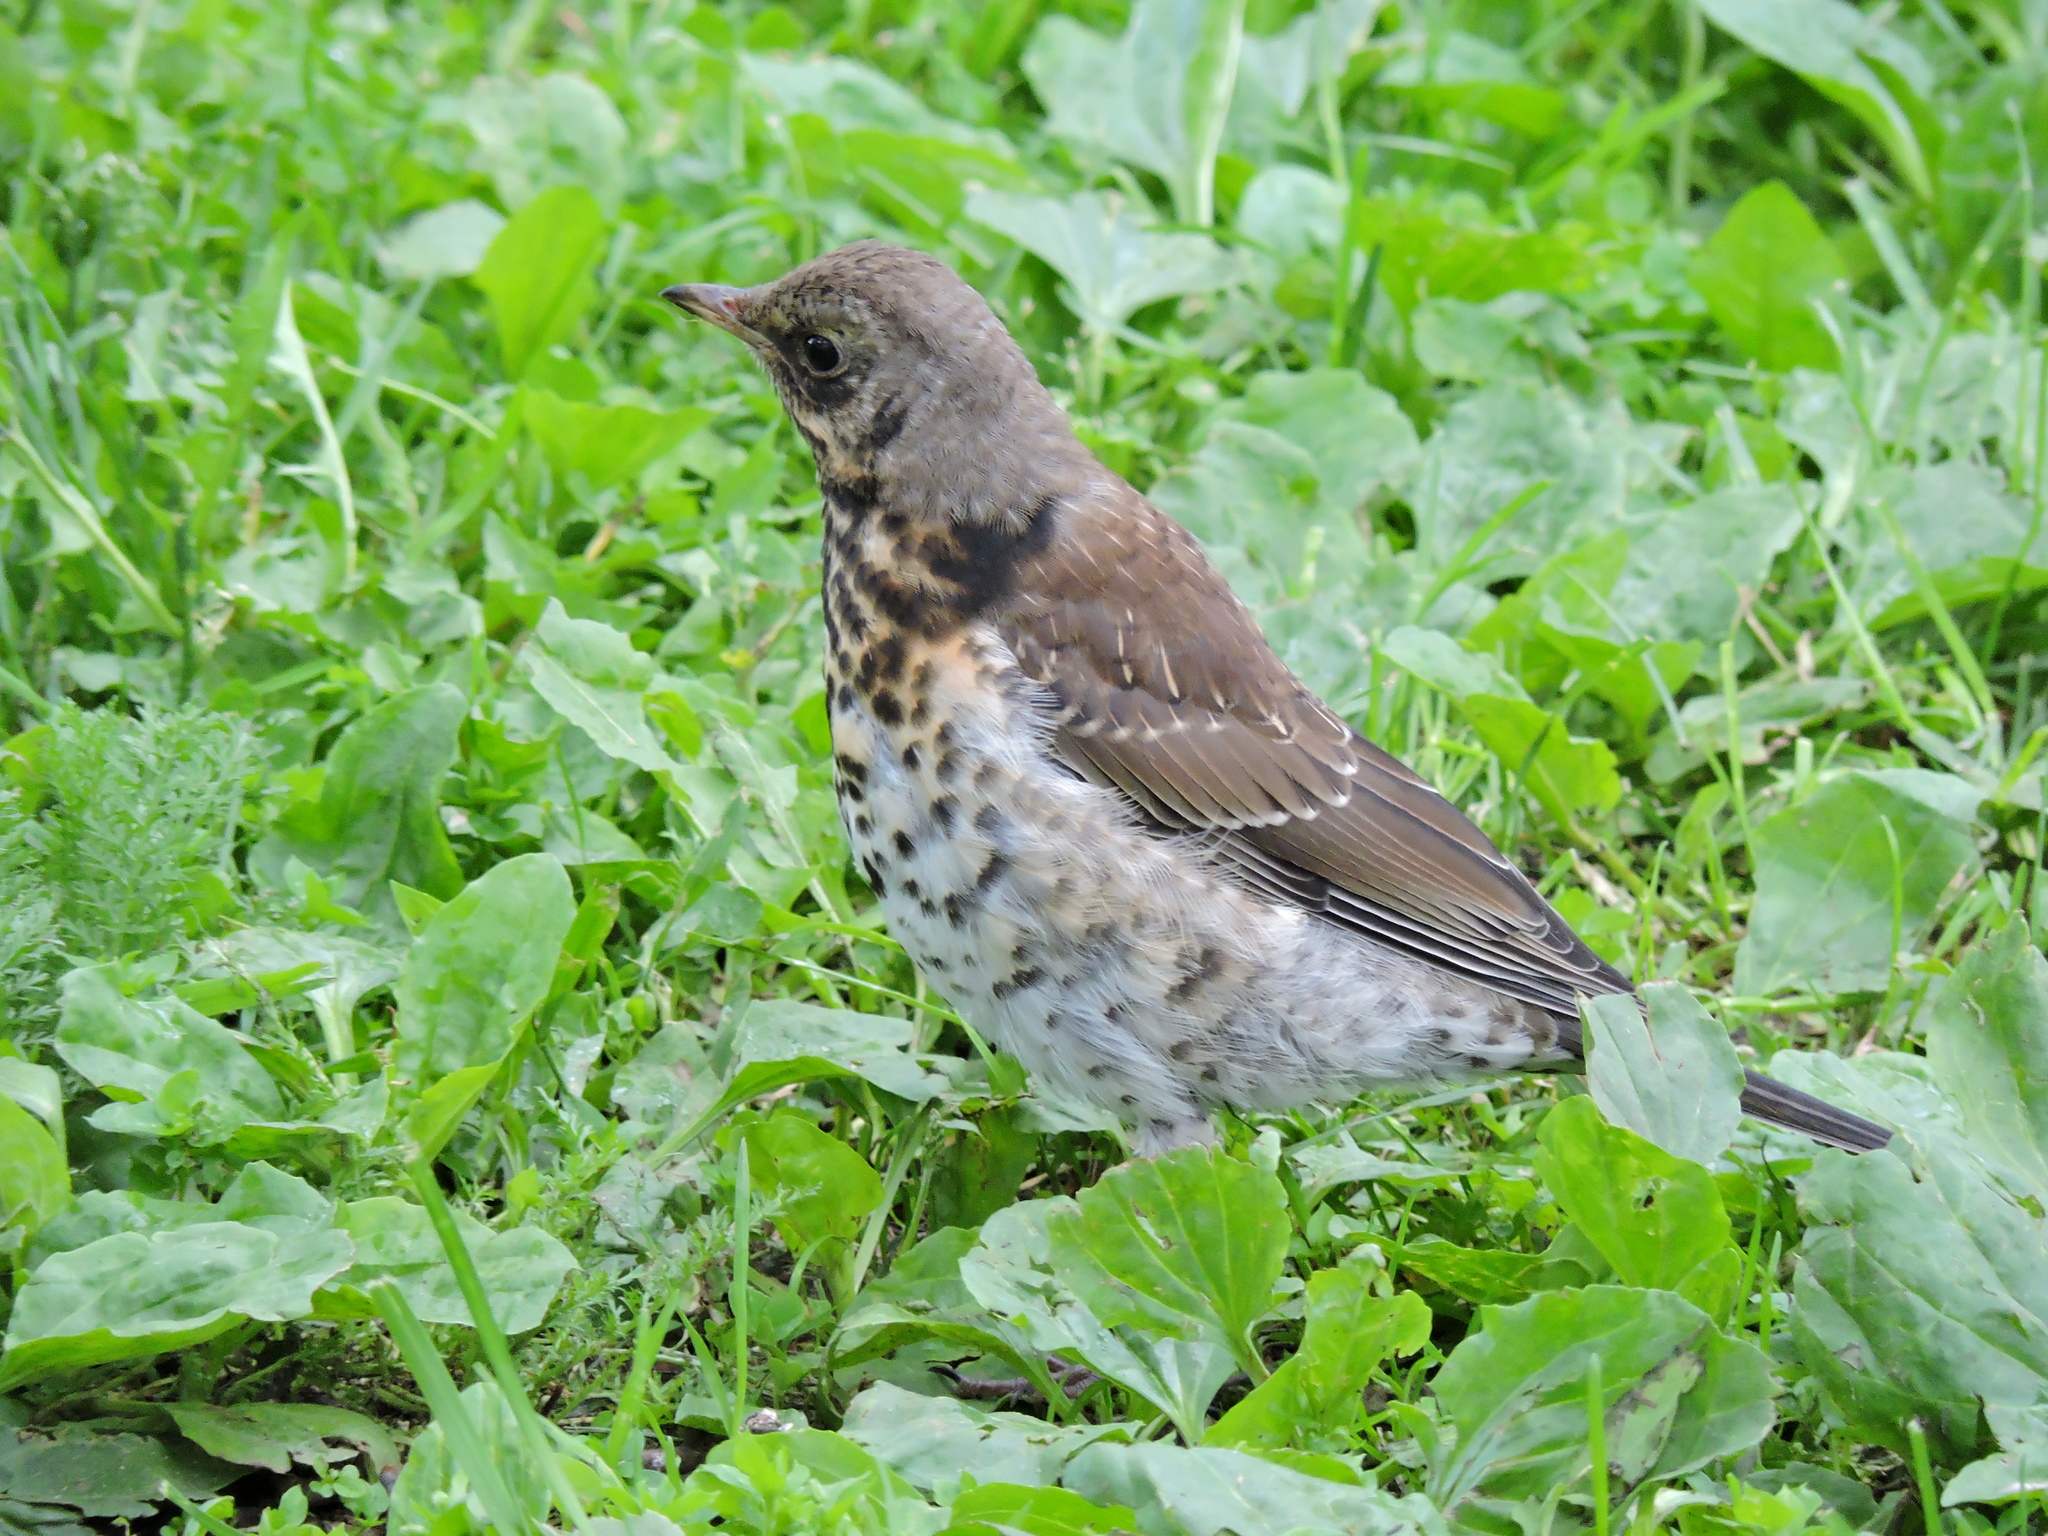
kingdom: Animalia
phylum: Chordata
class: Aves
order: Passeriformes
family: Turdidae
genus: Turdus
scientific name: Turdus pilaris
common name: Fieldfare
